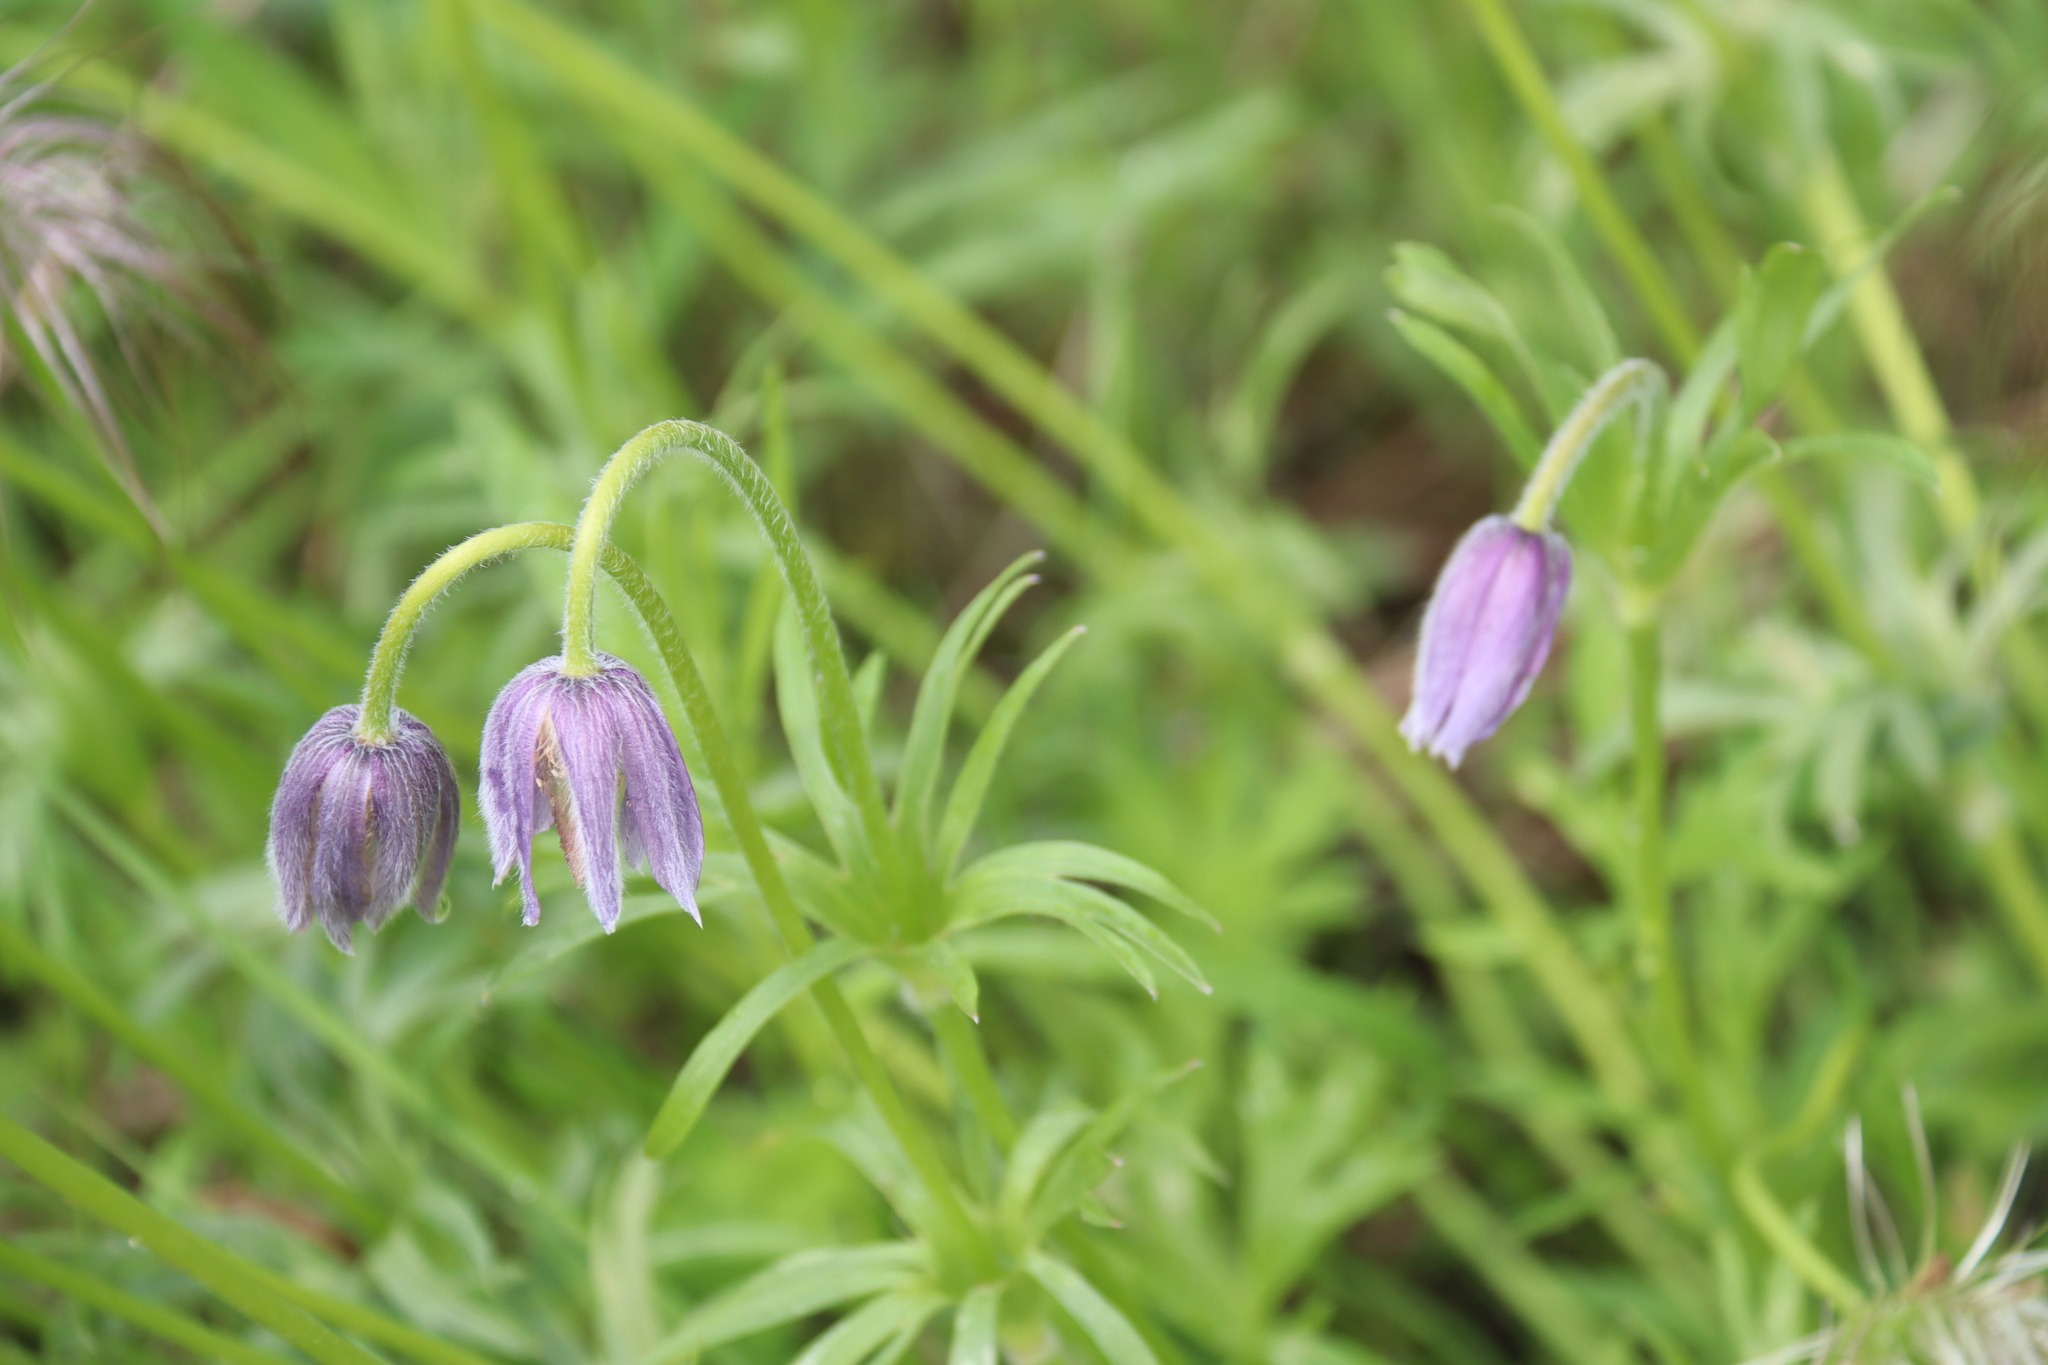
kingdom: Plantae
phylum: Tracheophyta
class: Magnoliopsida
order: Ranunculales
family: Ranunculaceae
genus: Pulsatilla
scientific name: Pulsatilla dahurica
